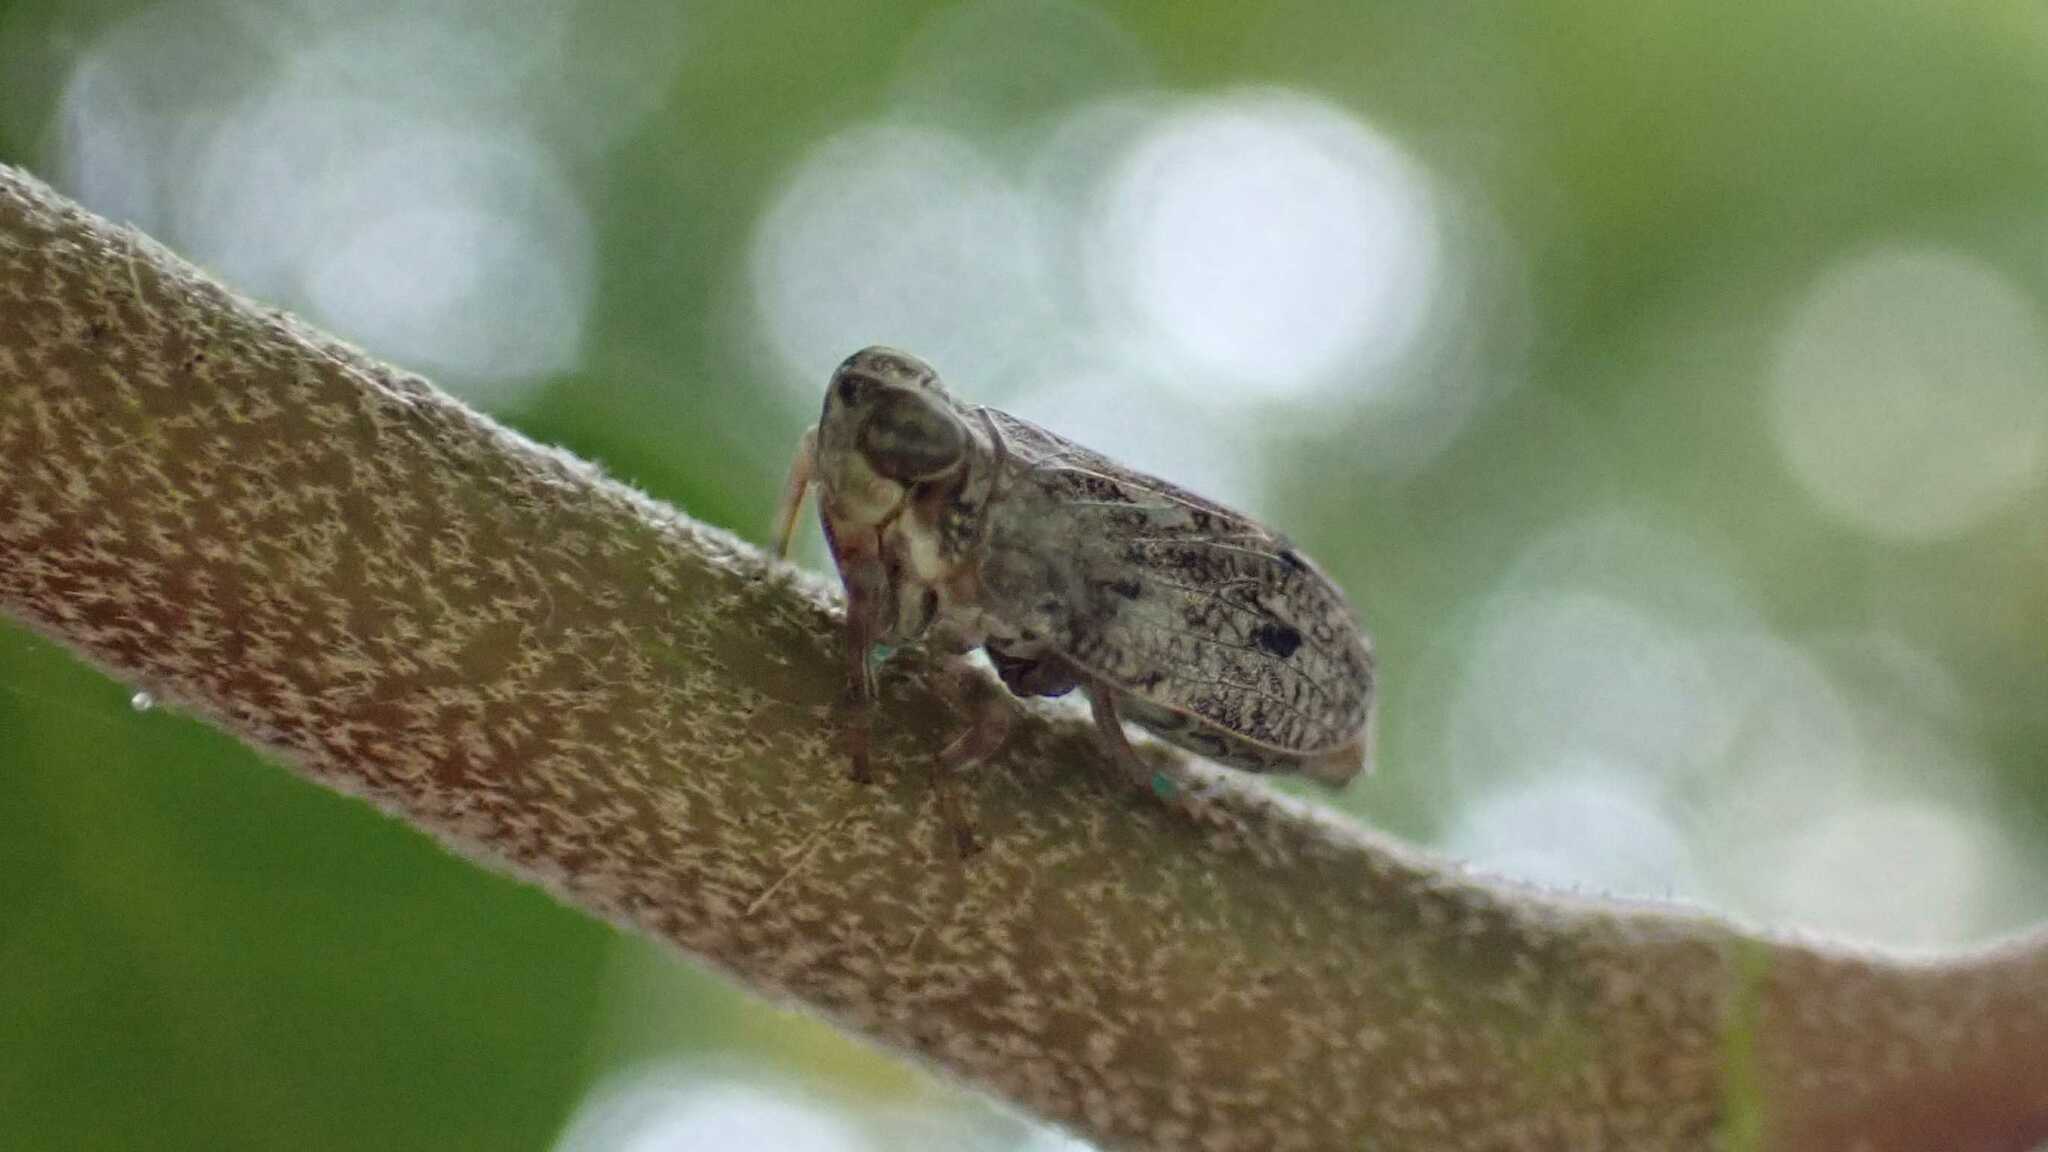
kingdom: Animalia
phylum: Arthropoda
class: Insecta
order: Hemiptera
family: Issidae
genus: Issus
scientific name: Issus coleoptratus
